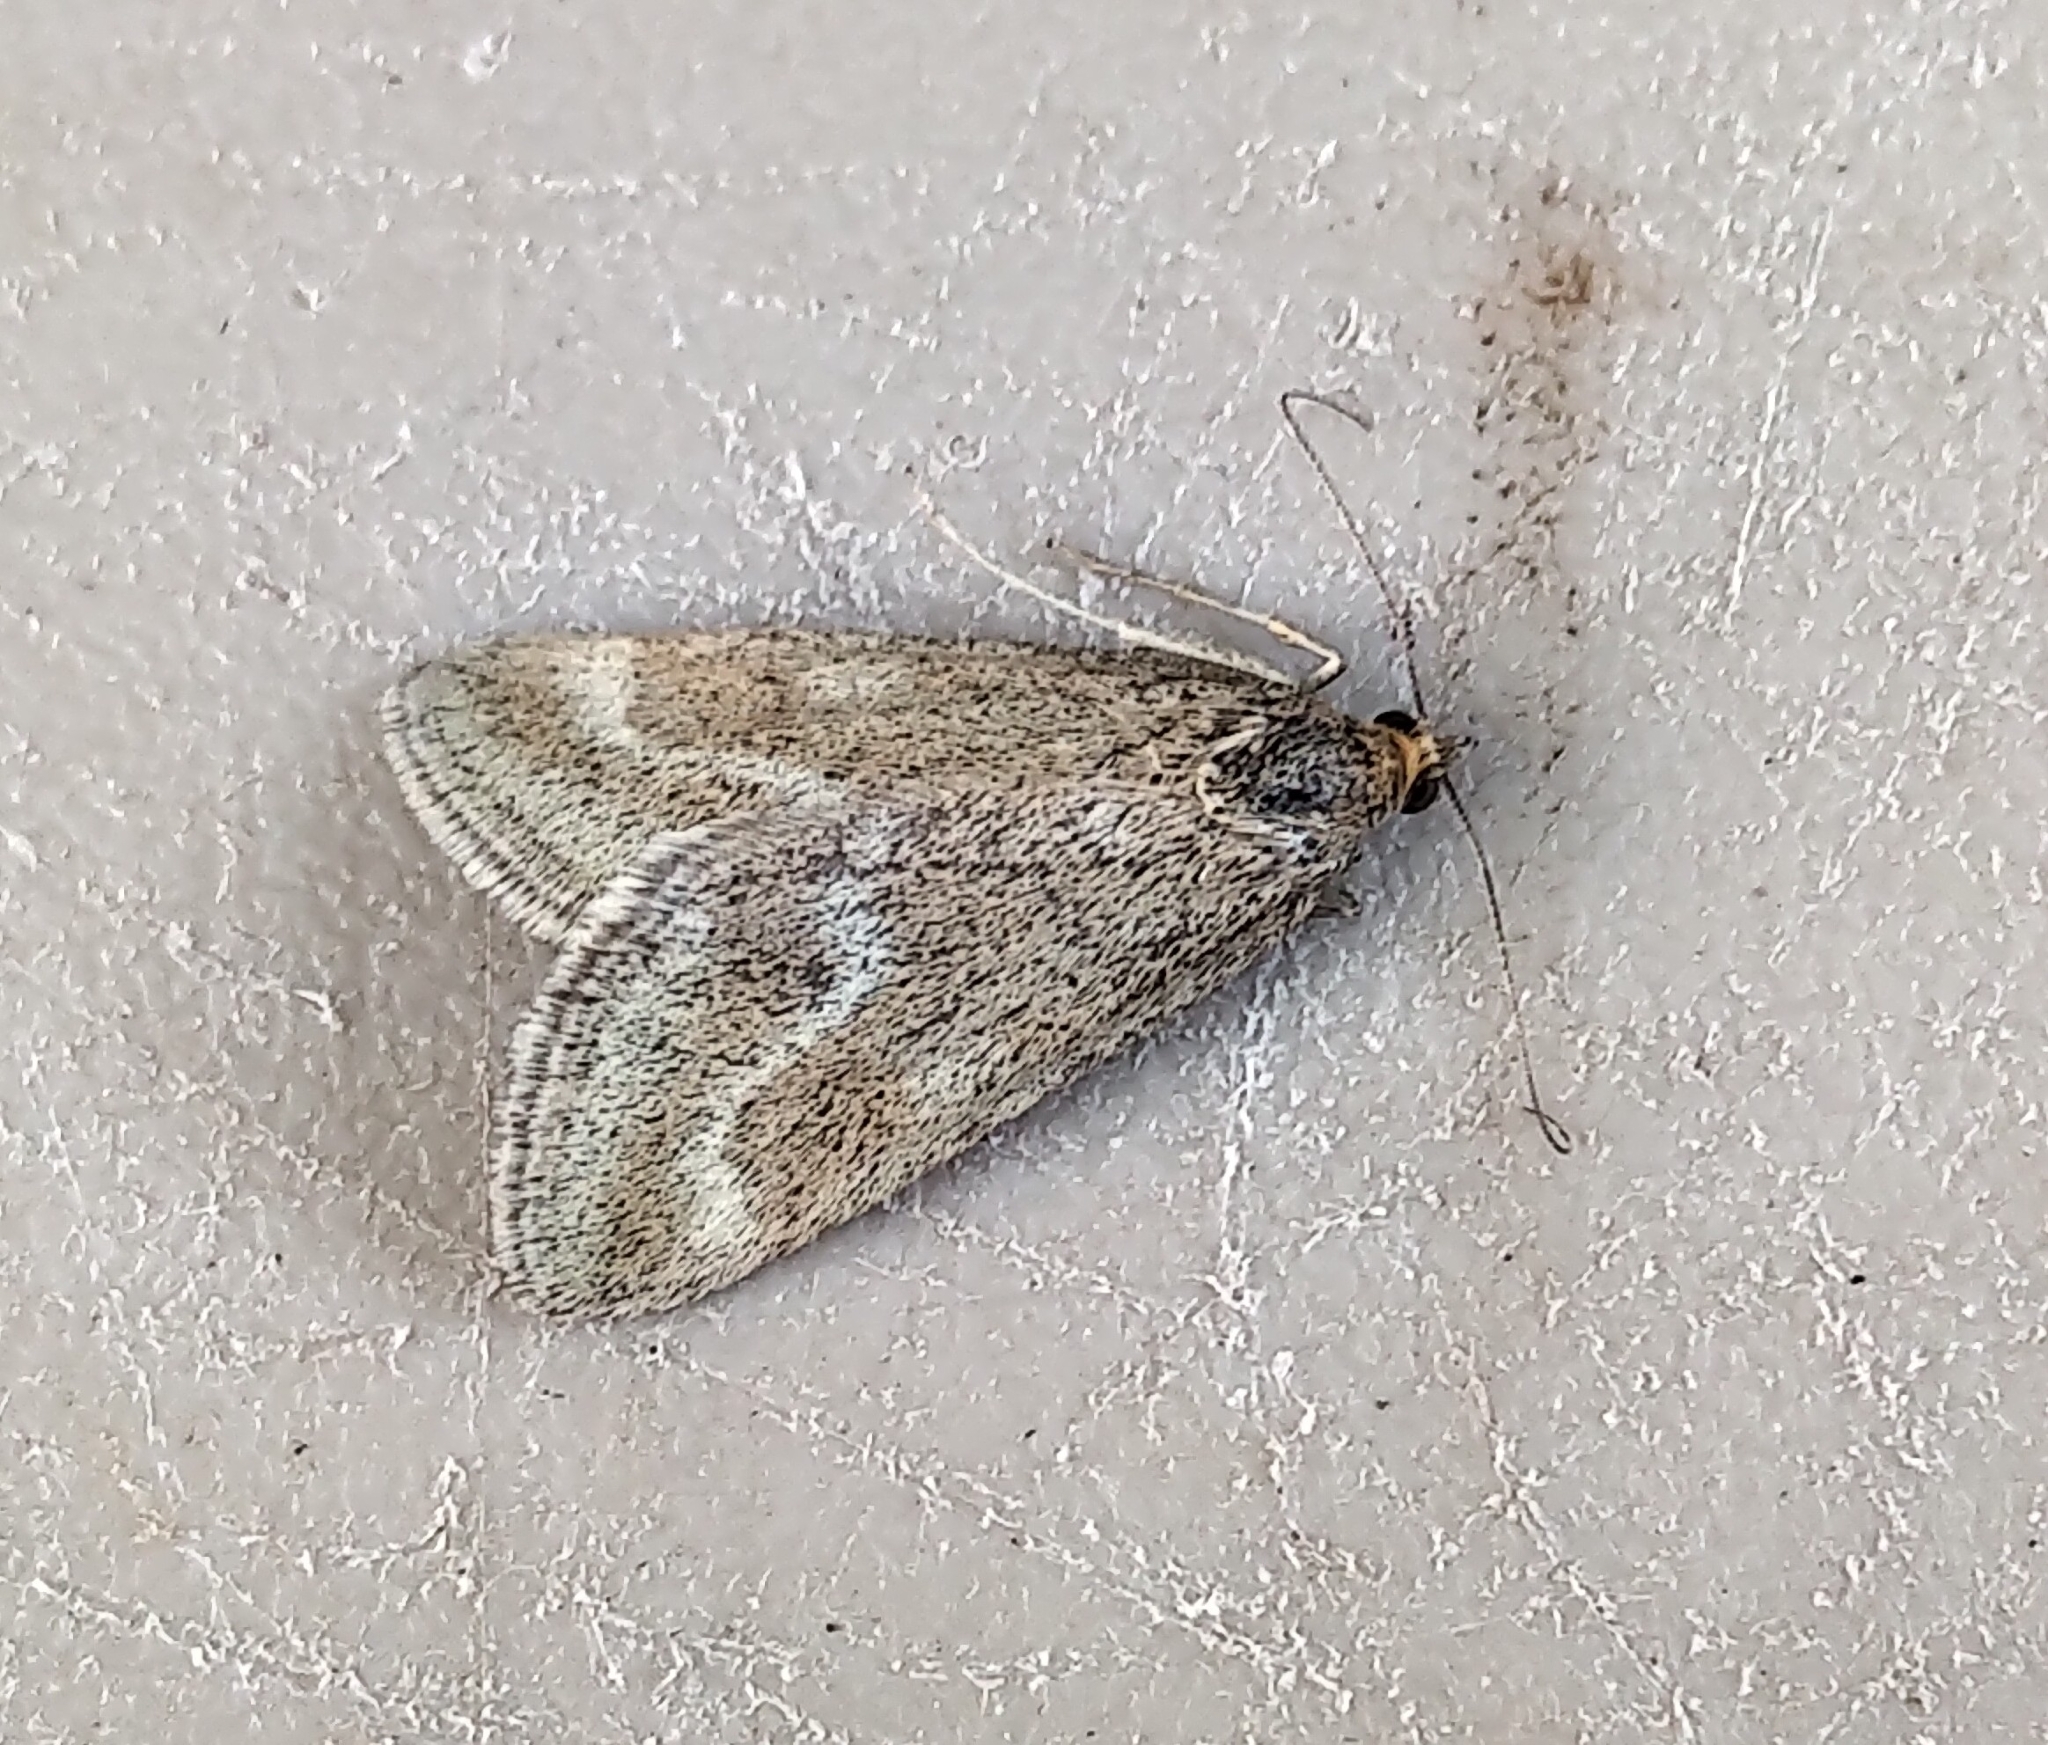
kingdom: Animalia
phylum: Arthropoda
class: Insecta
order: Lepidoptera
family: Crambidae
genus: Pyrausta
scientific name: Pyrausta unifascialis
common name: One-banded pyrausta
